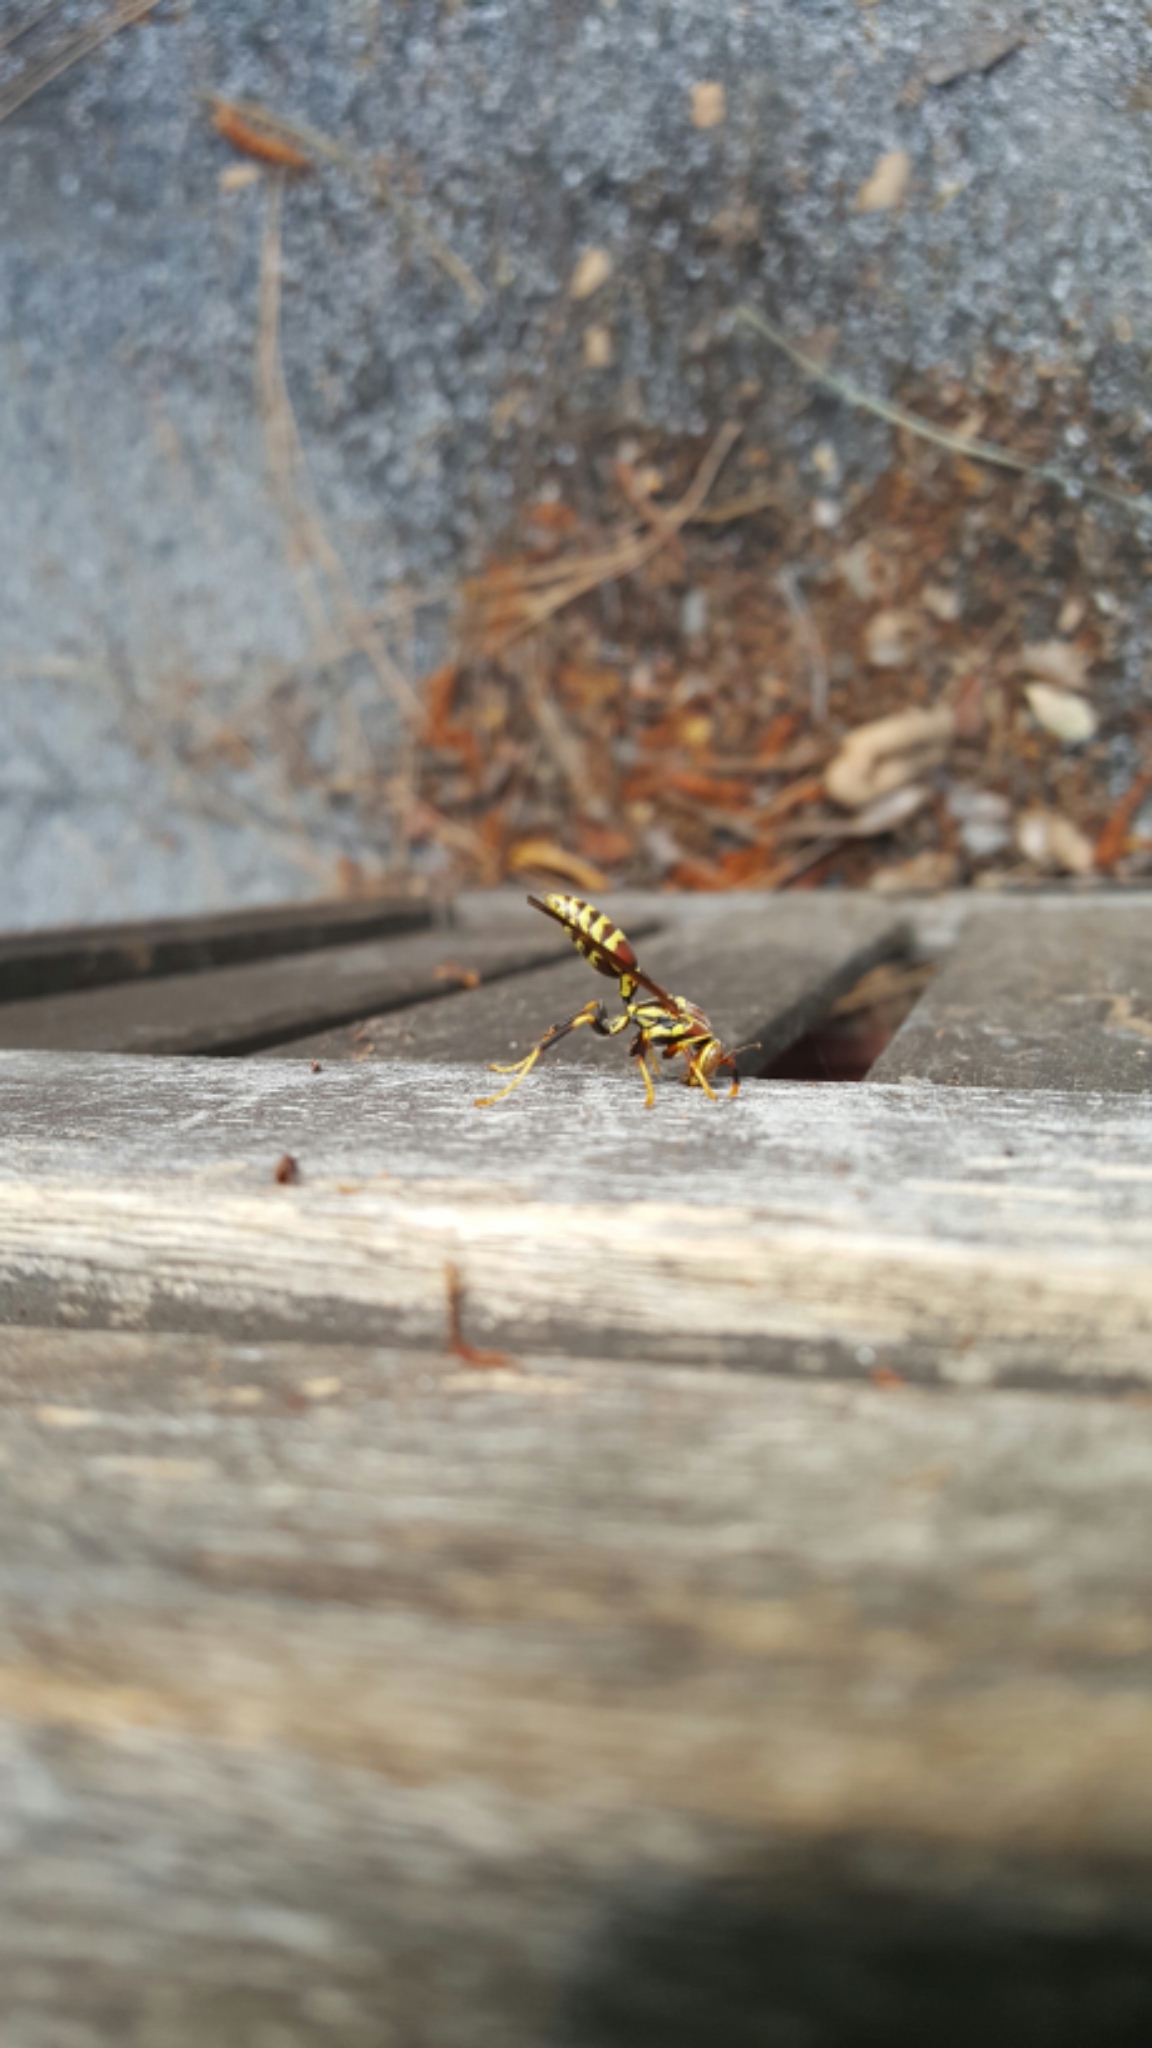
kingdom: Animalia
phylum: Arthropoda
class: Insecta
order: Hymenoptera
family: Eumenidae
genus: Polistes
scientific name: Polistes exclamans
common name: Paper wasp
